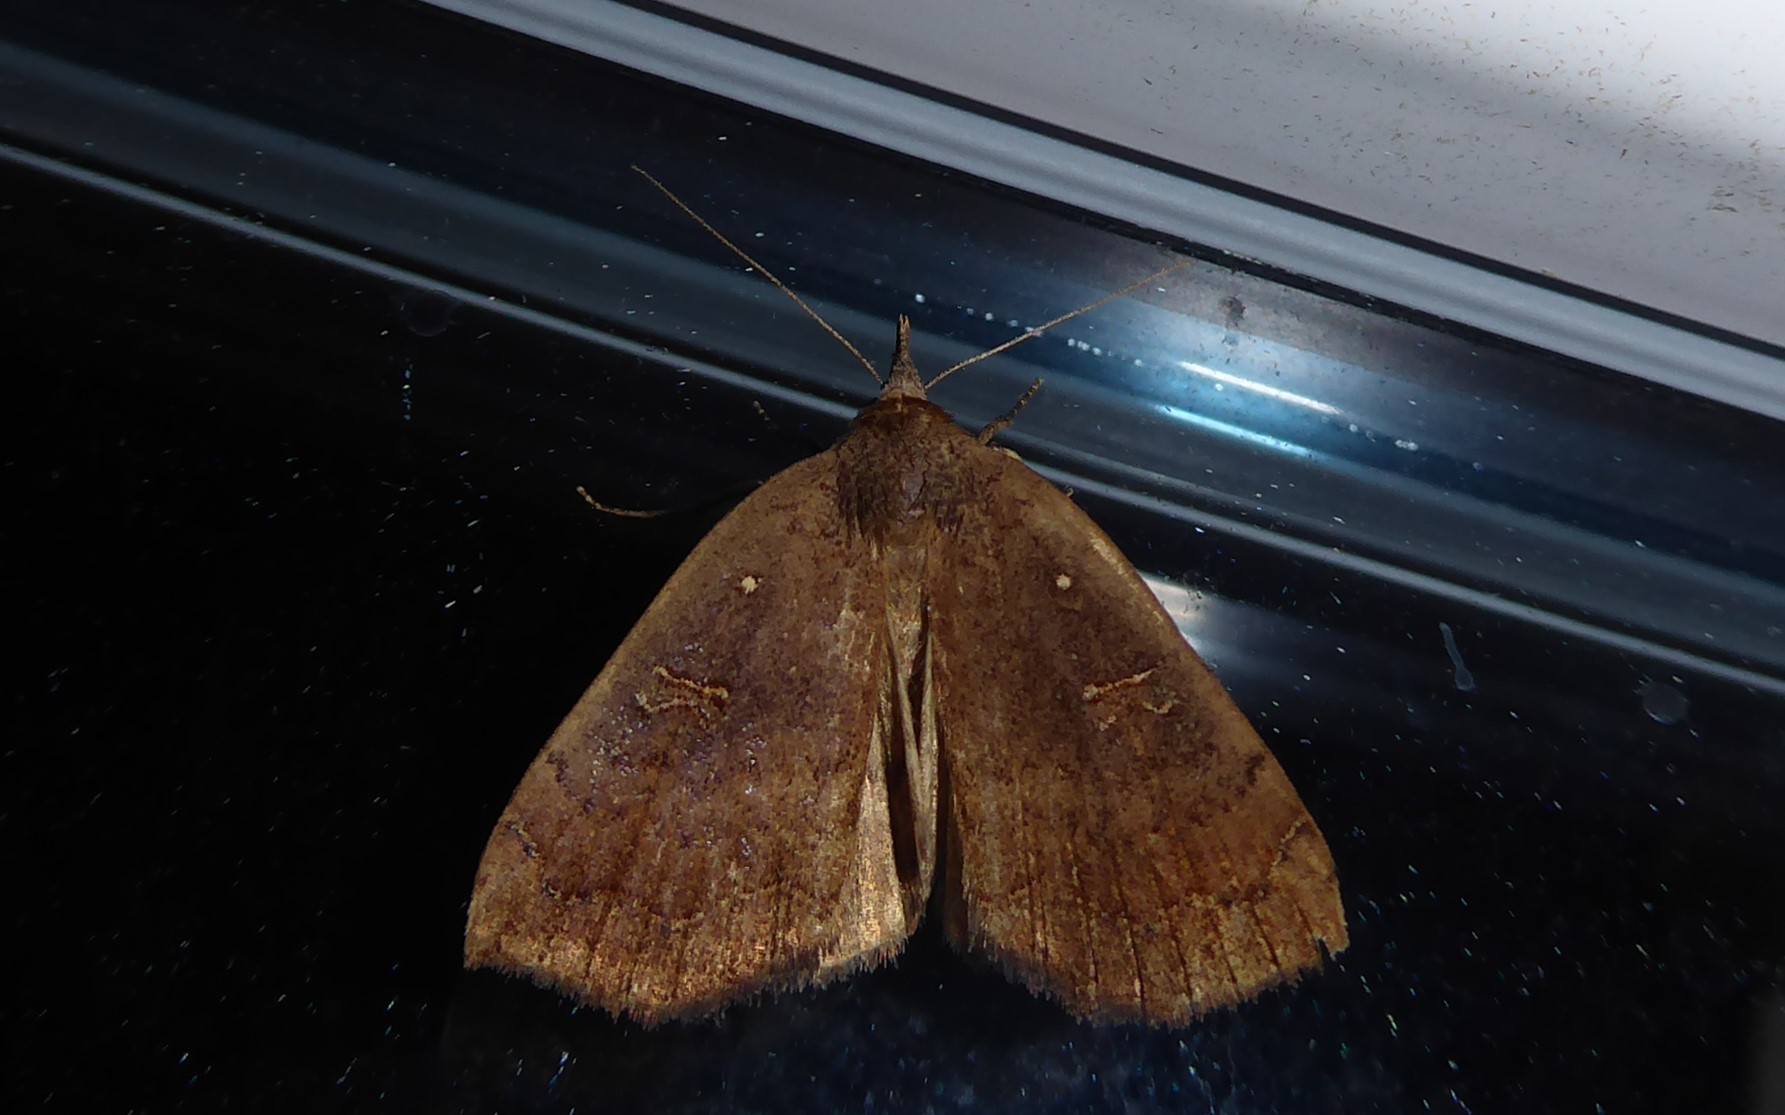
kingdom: Animalia
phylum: Arthropoda
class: Insecta
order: Lepidoptera
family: Erebidae
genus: Rhapsa
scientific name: Rhapsa scotosialis
